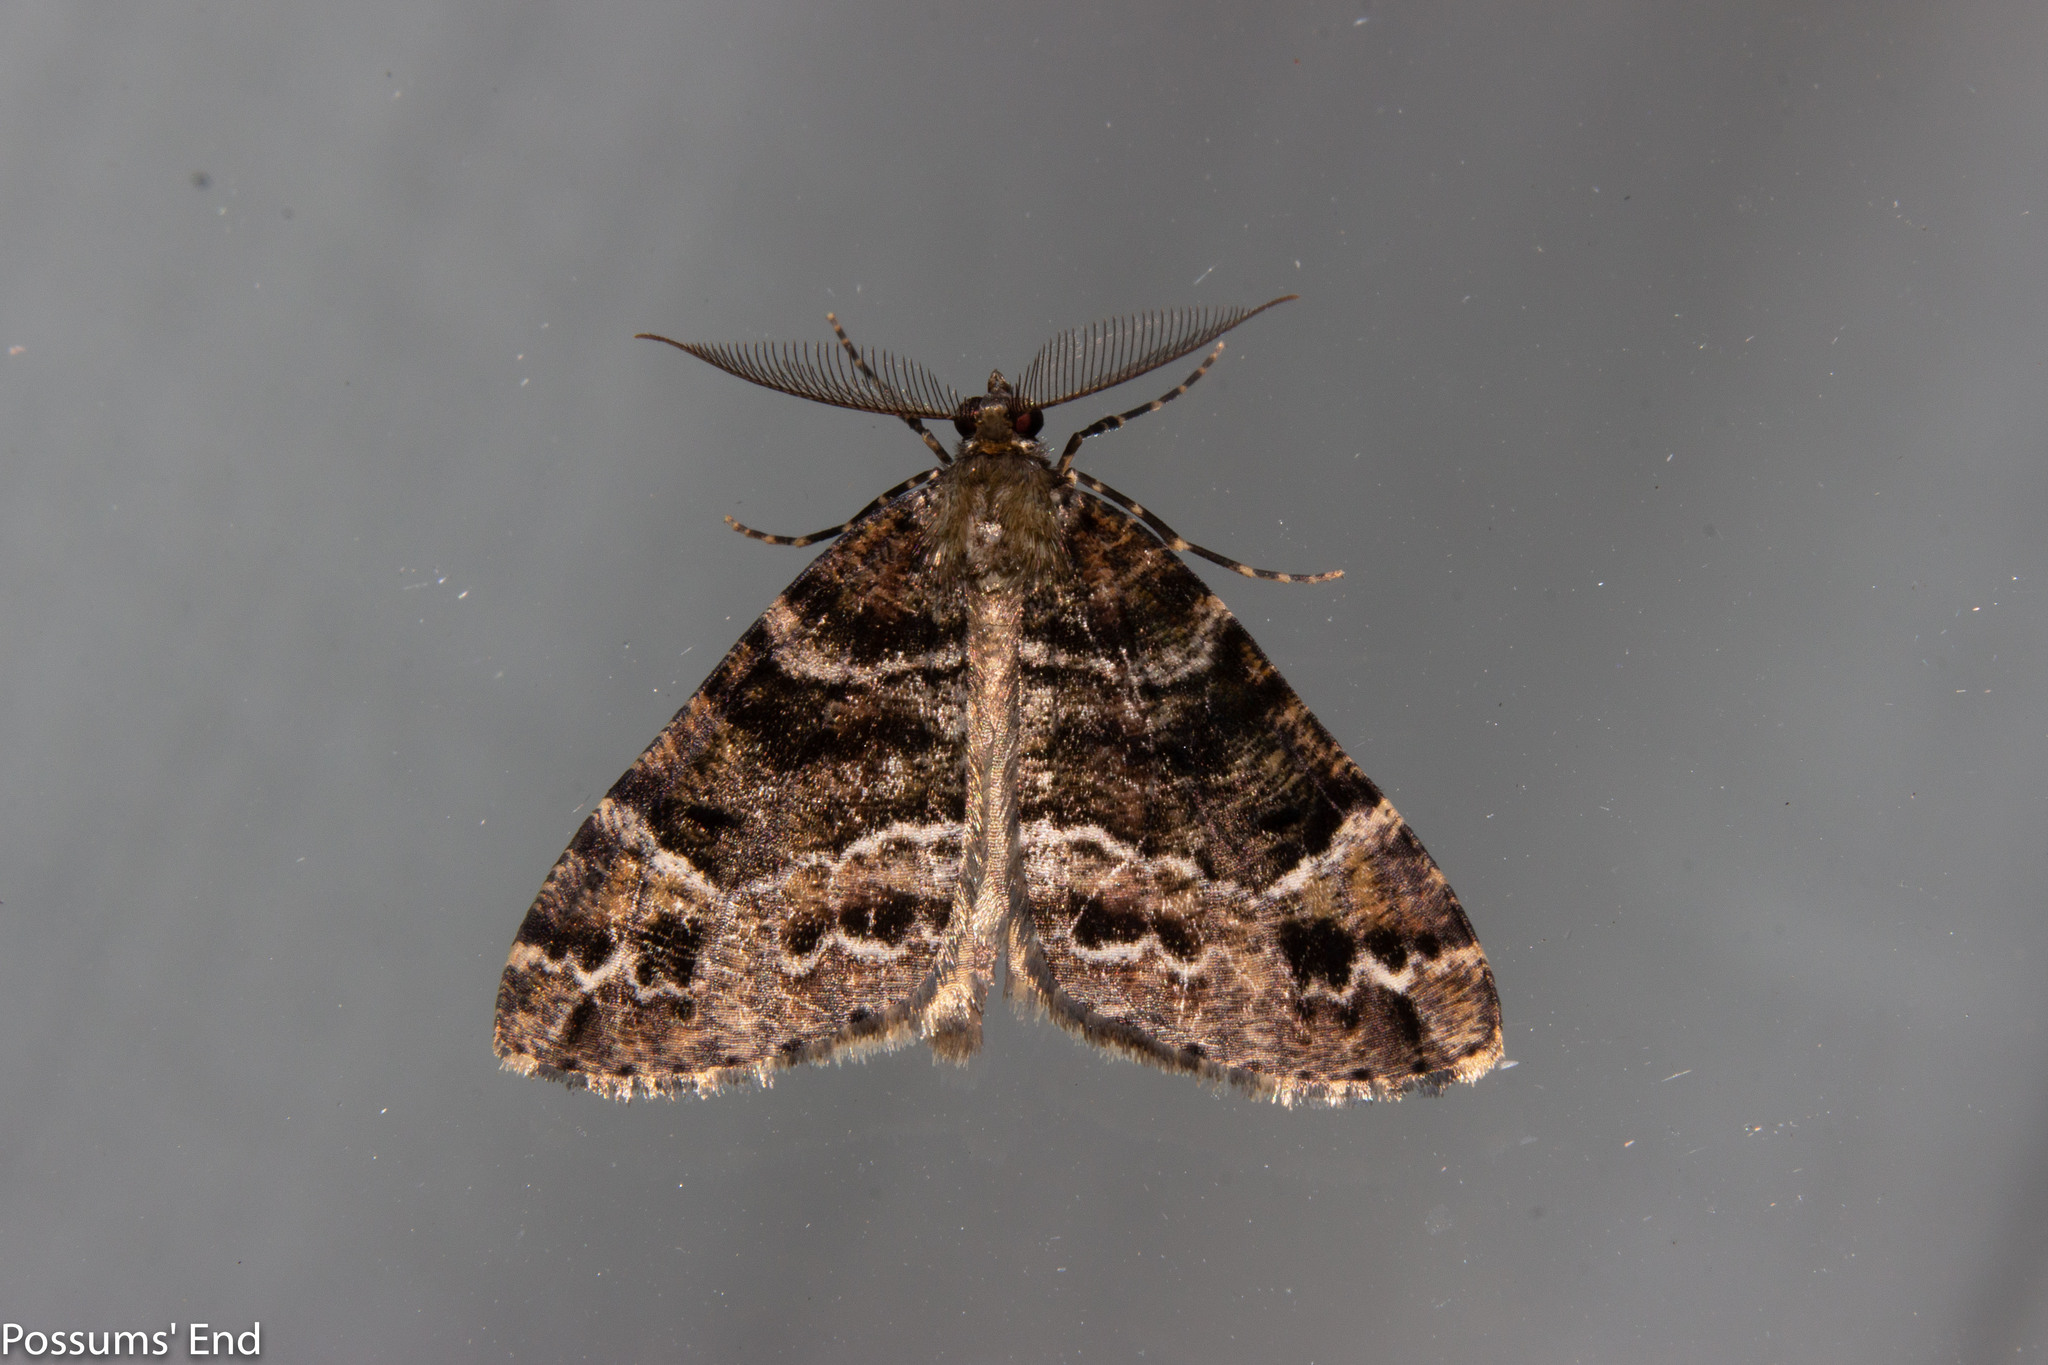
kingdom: Animalia
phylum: Arthropoda
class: Insecta
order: Lepidoptera
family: Geometridae
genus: Pseudocoremia
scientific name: Pseudocoremia productata
